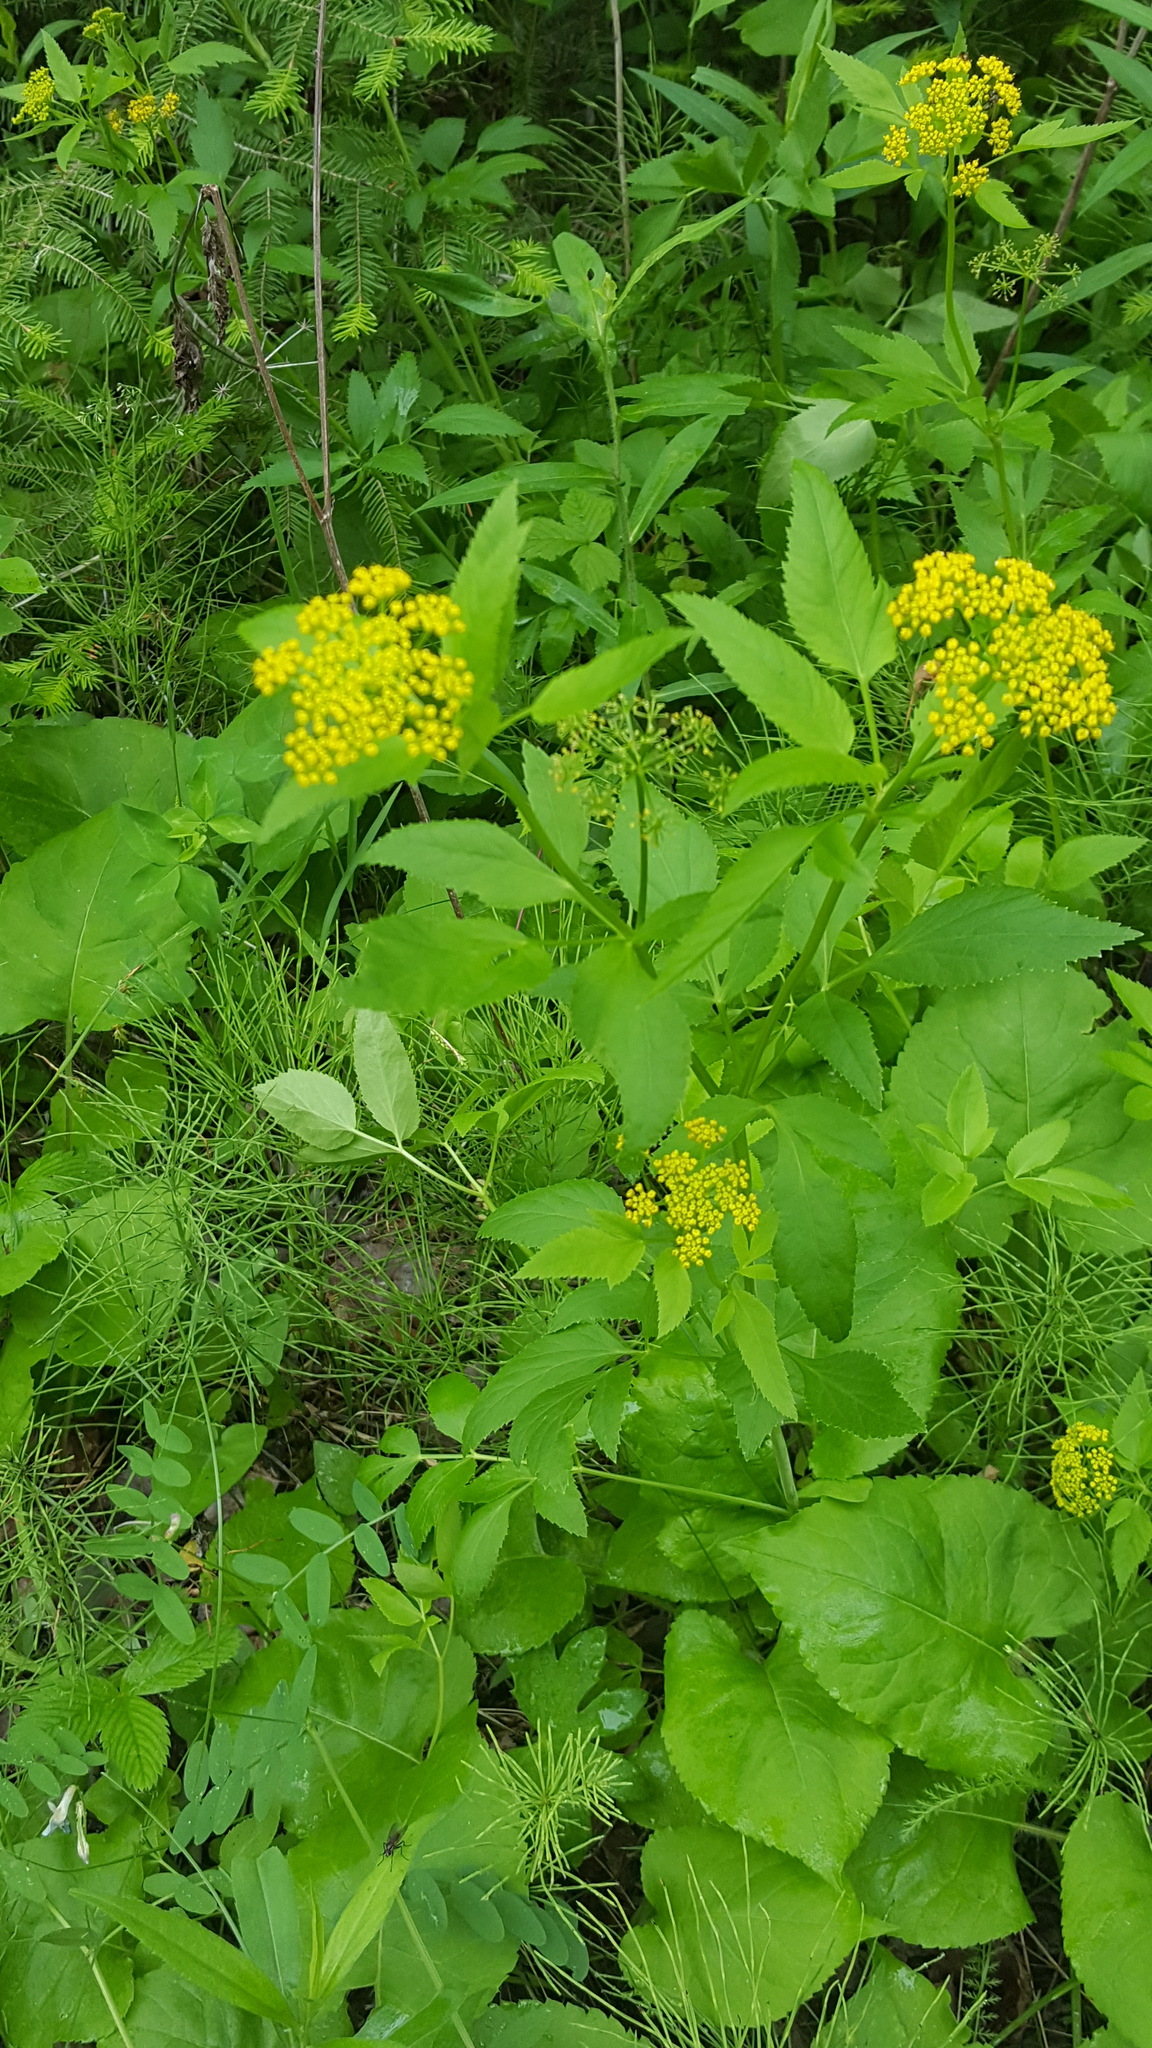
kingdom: Plantae
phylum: Tracheophyta
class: Magnoliopsida
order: Apiales
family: Apiaceae
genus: Zizia
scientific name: Zizia aurea
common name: Golden alexanders
